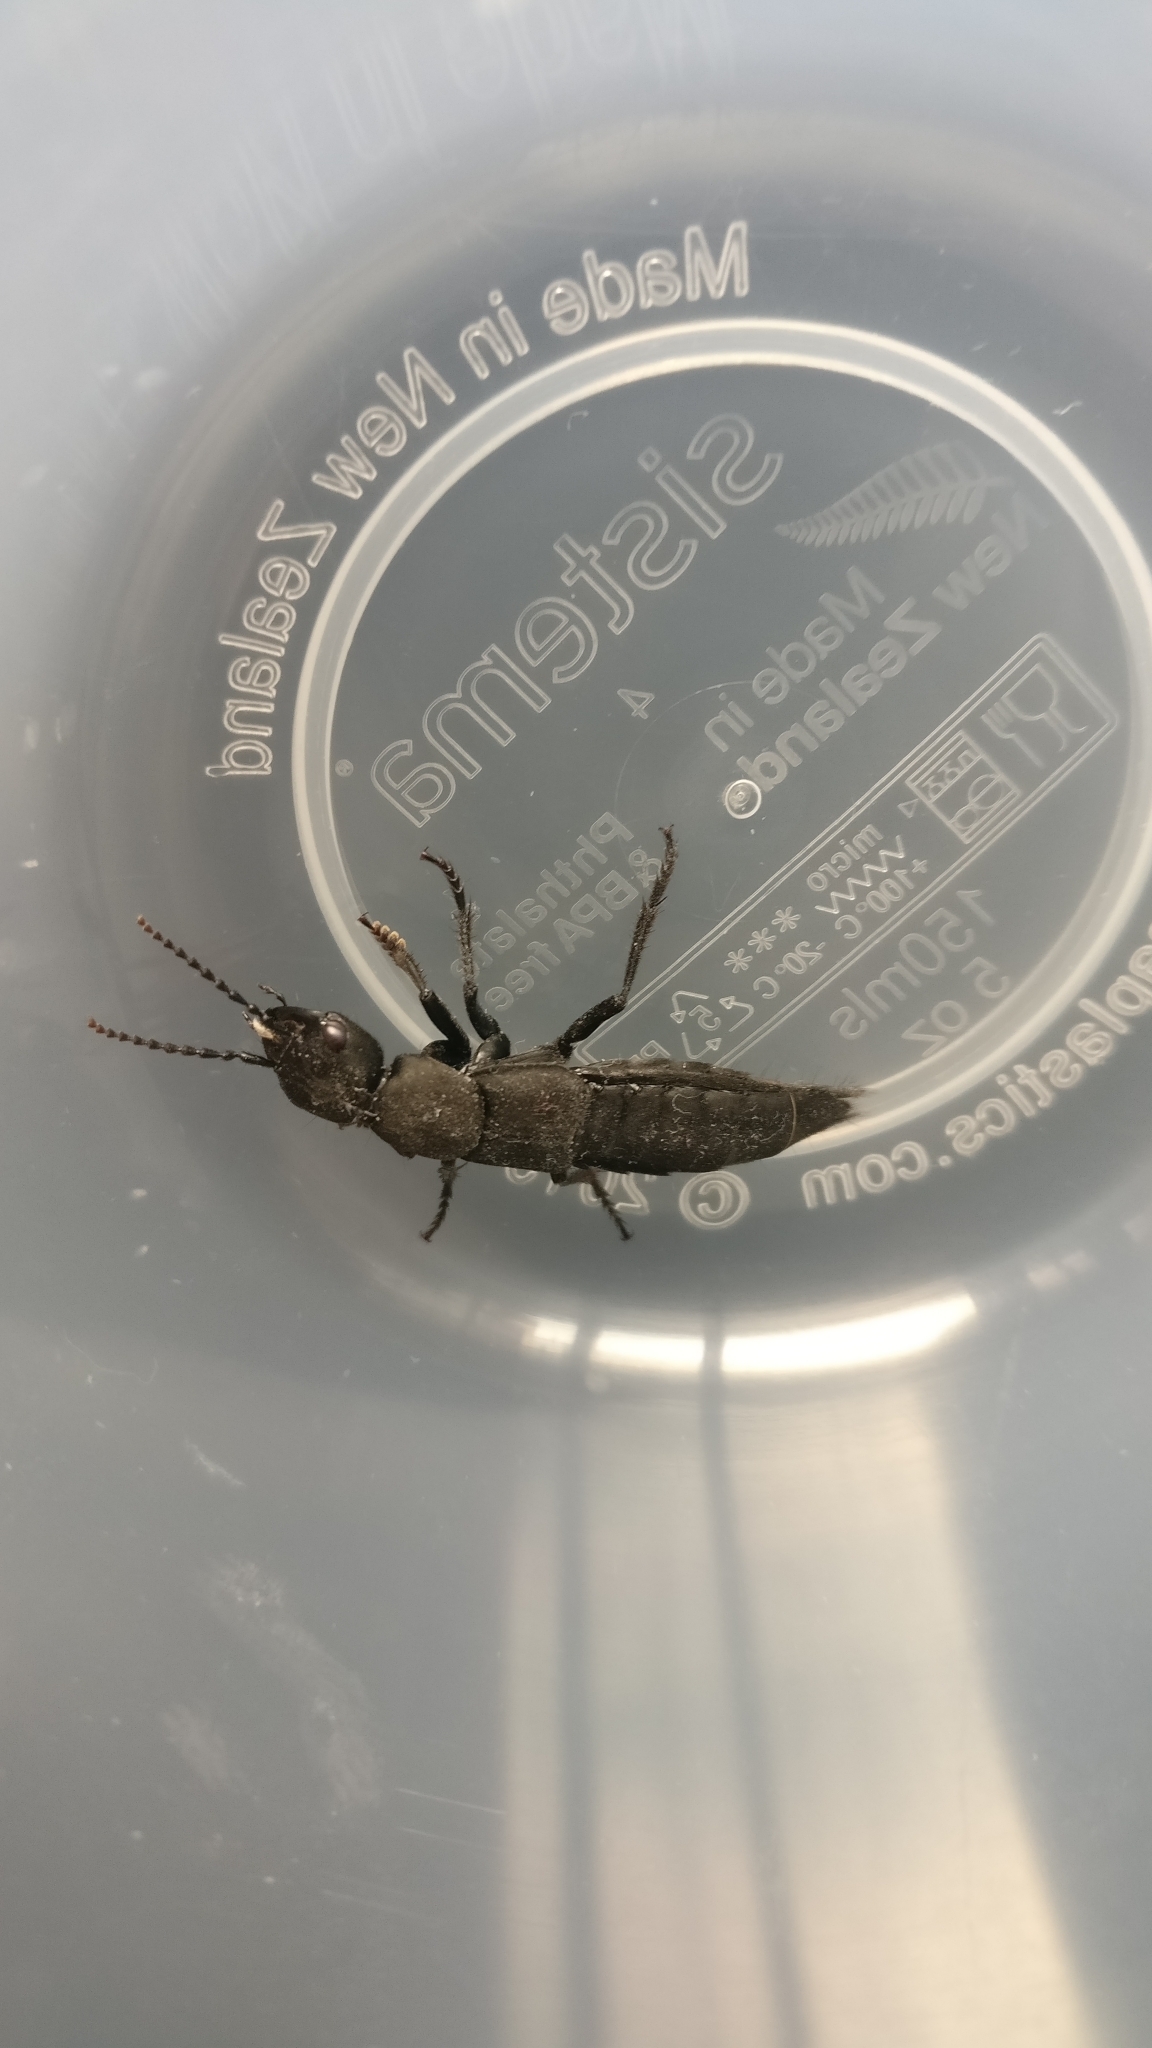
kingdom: Animalia
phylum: Arthropoda
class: Insecta
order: Coleoptera
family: Staphylinidae
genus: Ocypus
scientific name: Ocypus olens
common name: Devil's coach-horse
